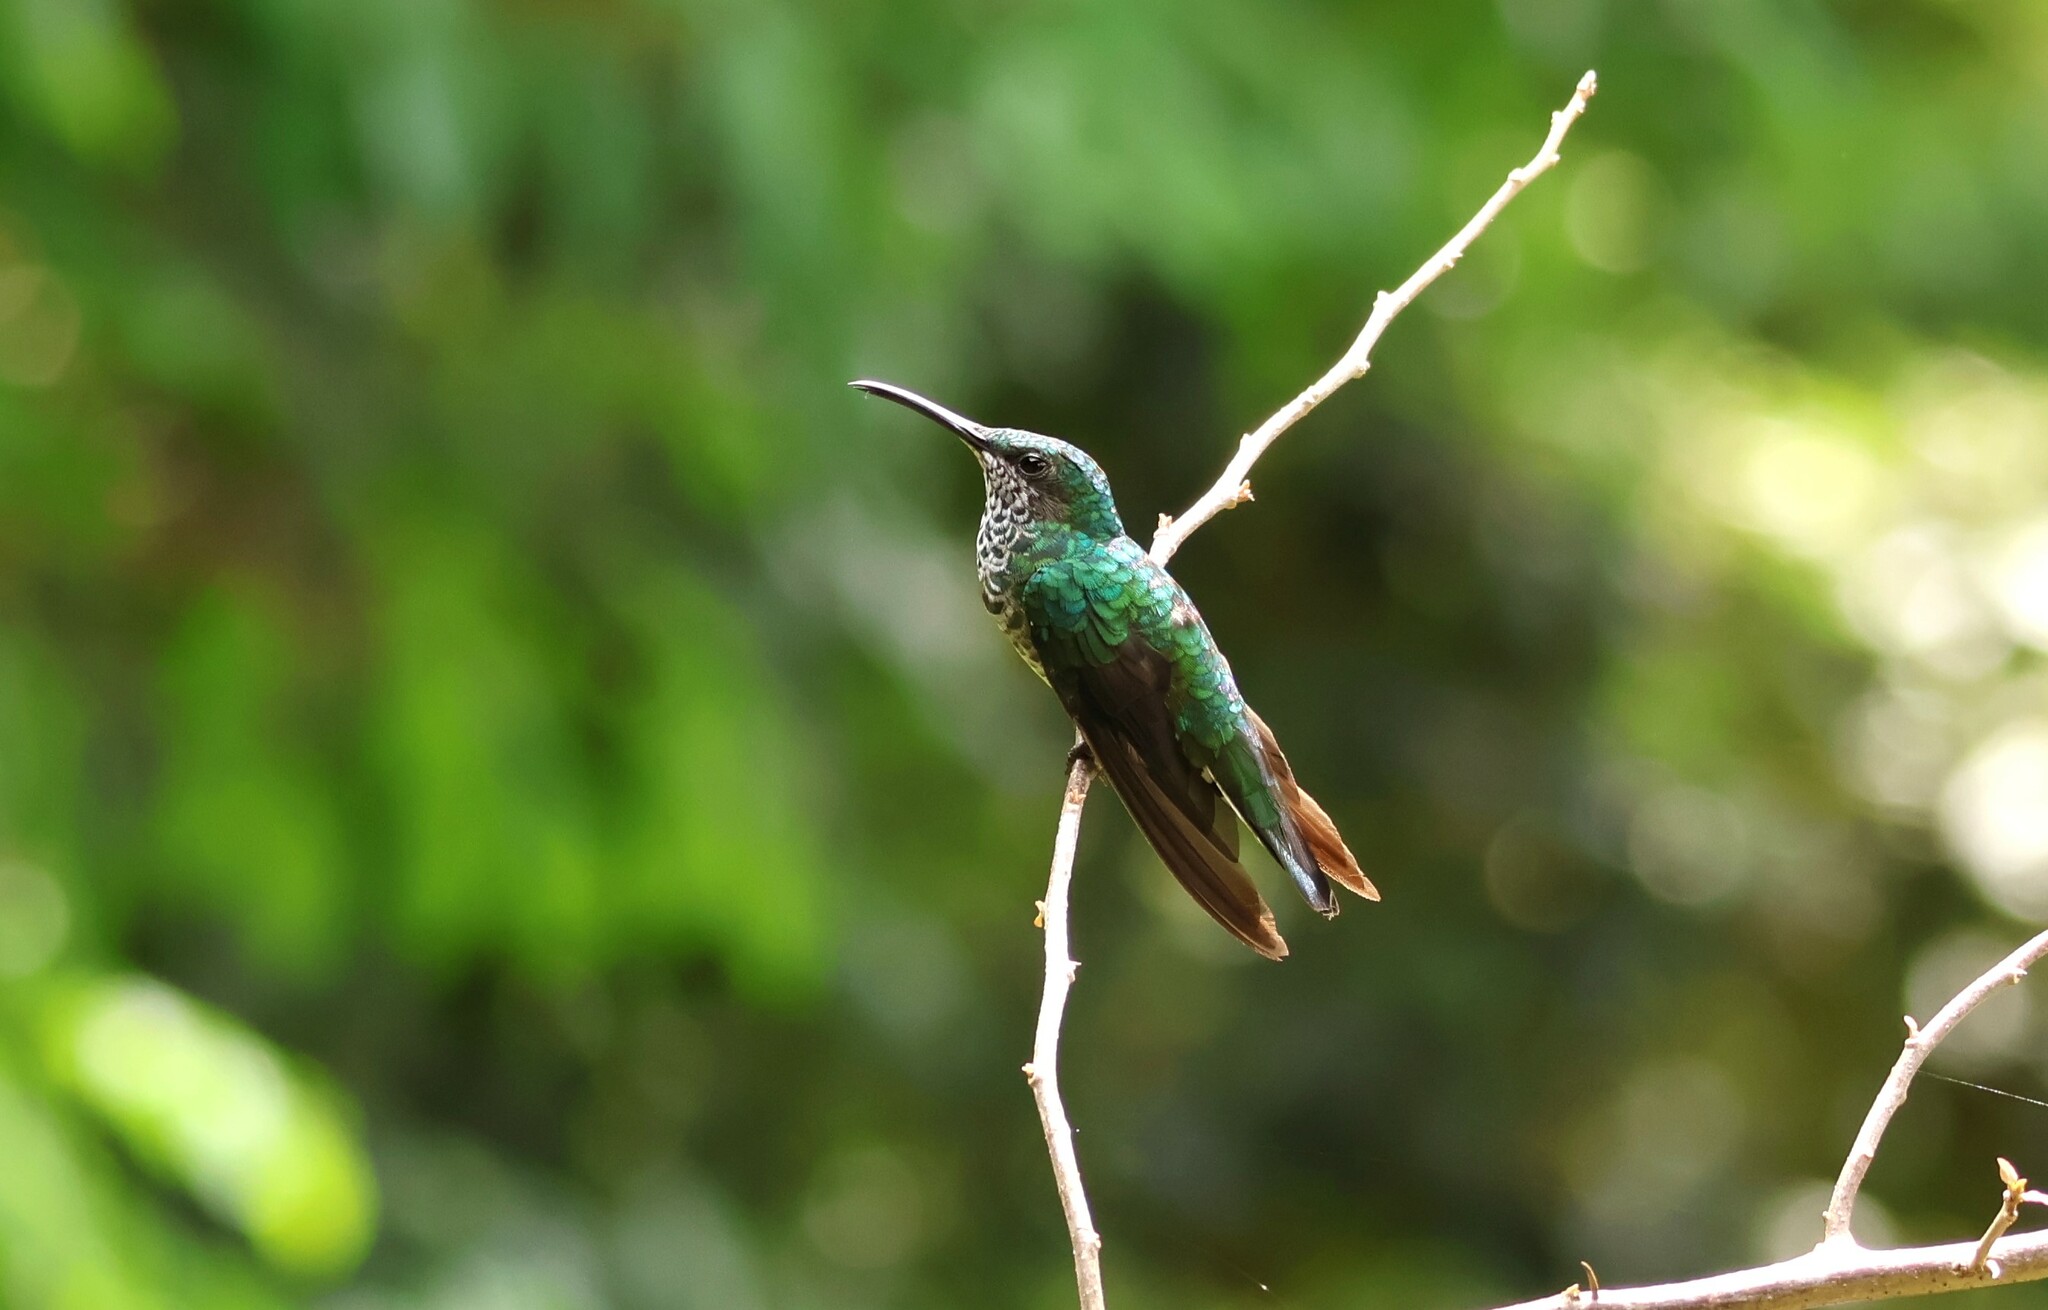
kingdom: Animalia
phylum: Chordata
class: Aves
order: Apodiformes
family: Trochilidae
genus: Florisuga
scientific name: Florisuga mellivora
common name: White-necked jacobin
